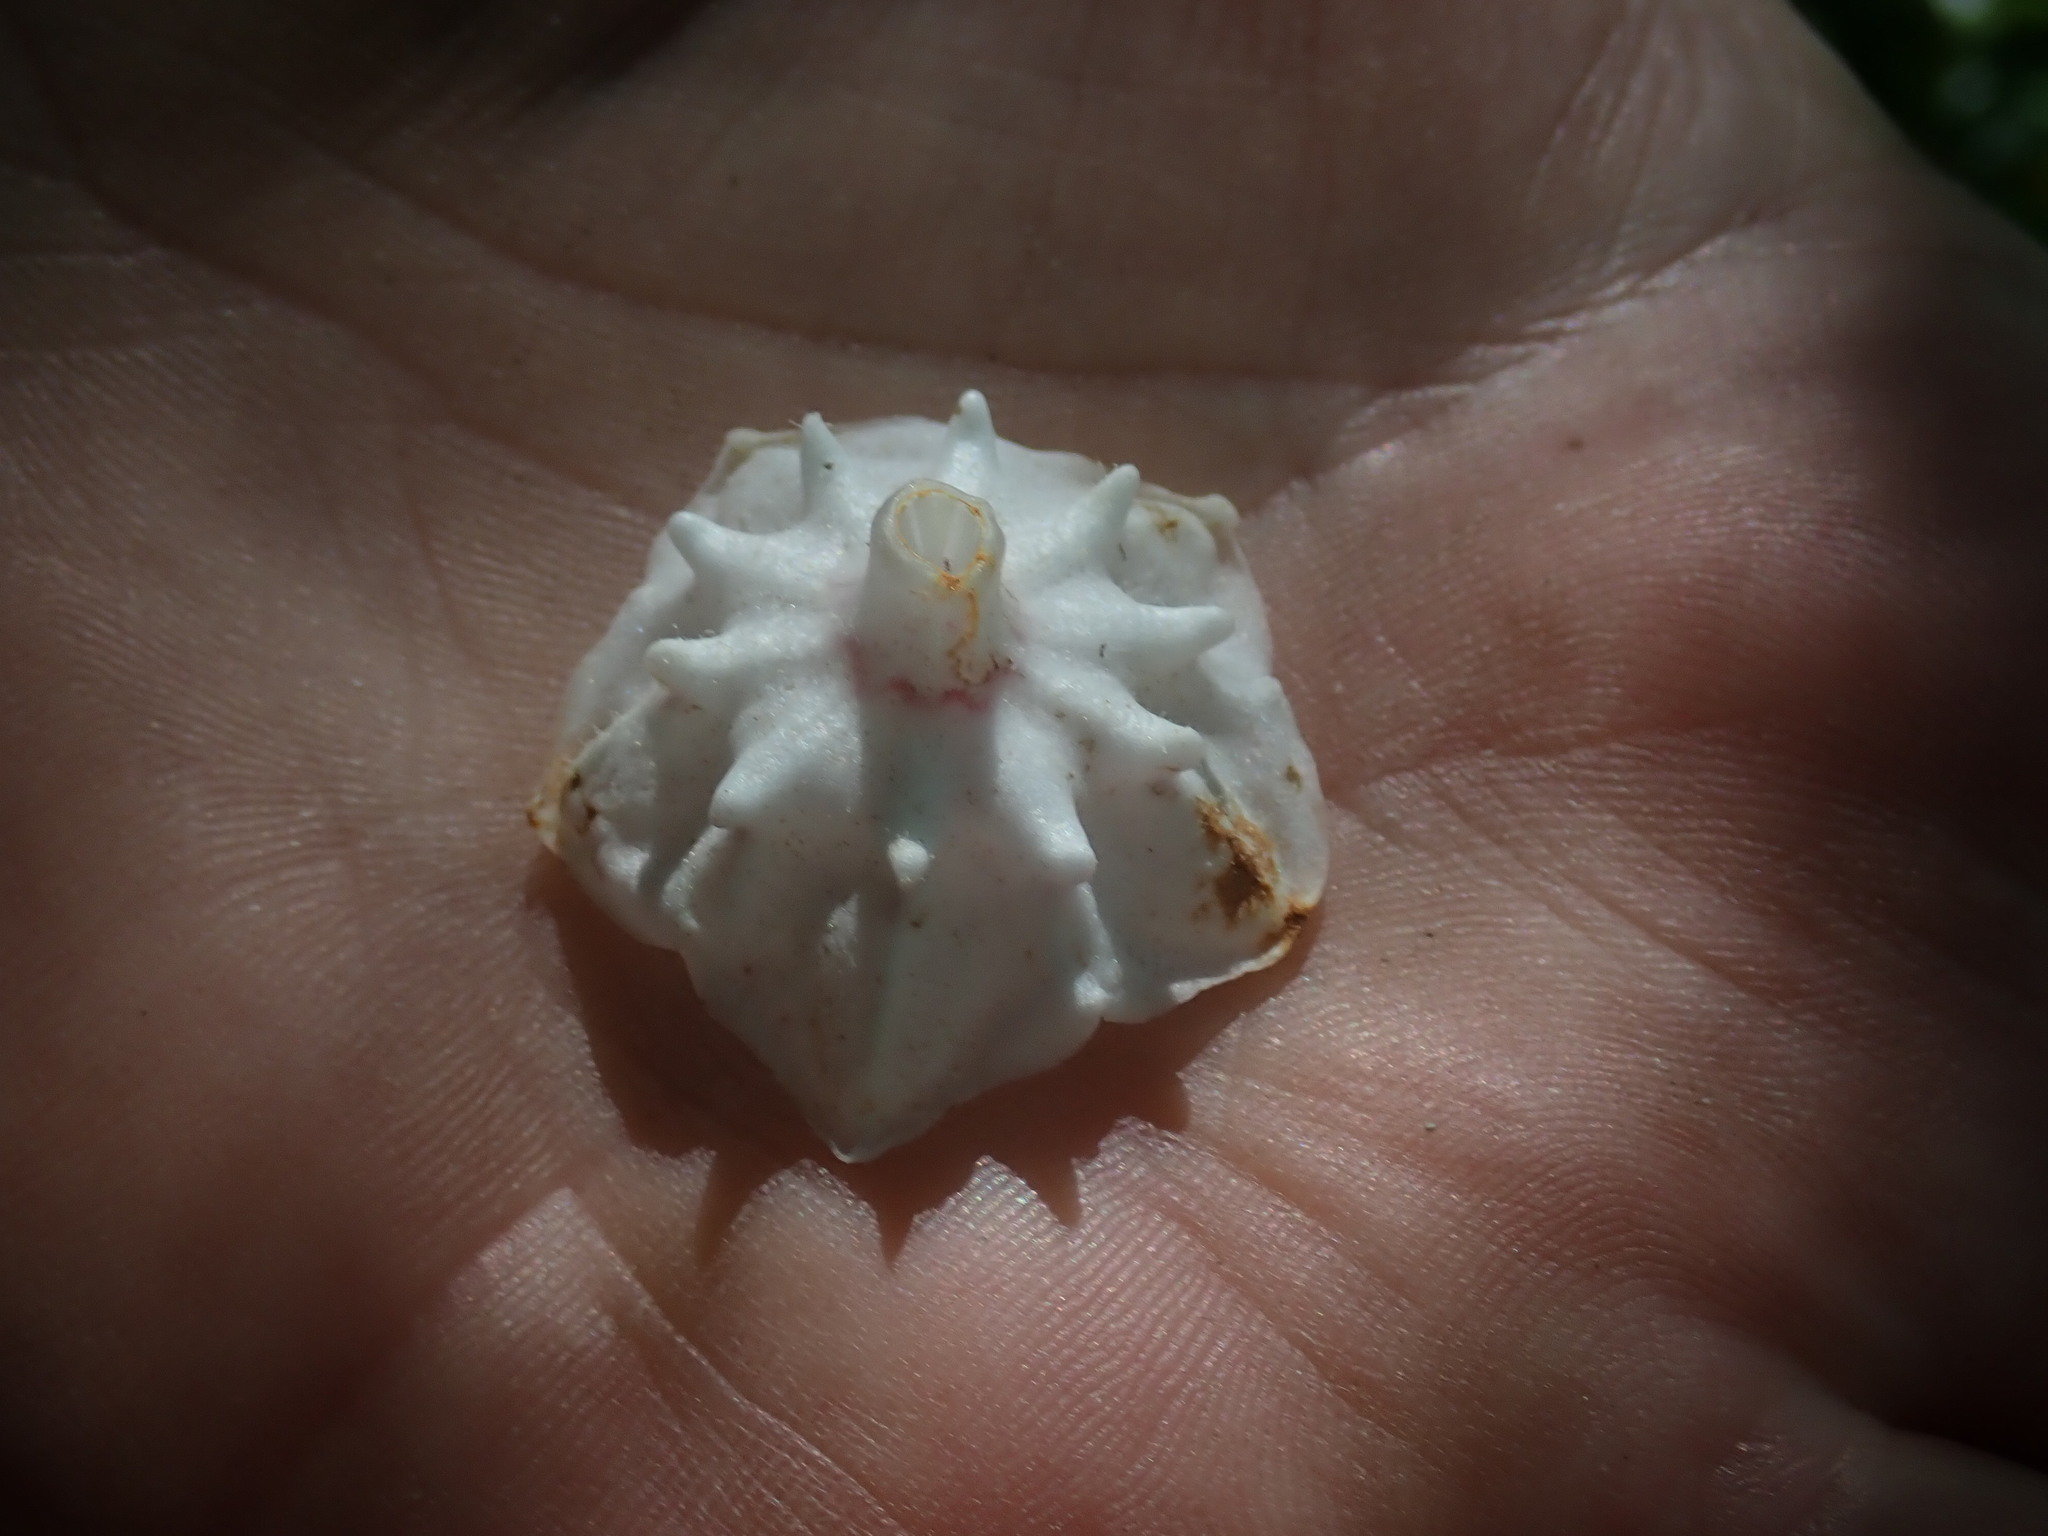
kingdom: Plantae
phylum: Tracheophyta
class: Magnoliopsida
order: Ericales
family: Ericaceae
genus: Kalmia
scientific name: Kalmia latifolia
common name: Mountain-laurel
